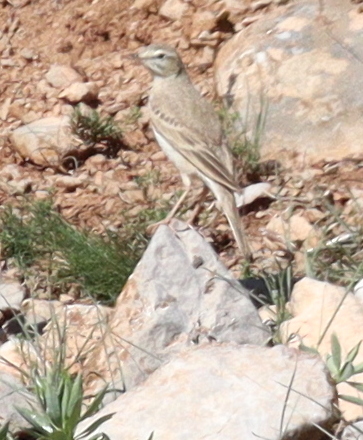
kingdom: Animalia
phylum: Chordata
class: Aves
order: Passeriformes
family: Motacillidae
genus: Anthus
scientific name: Anthus campestris
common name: Tawny pipit
